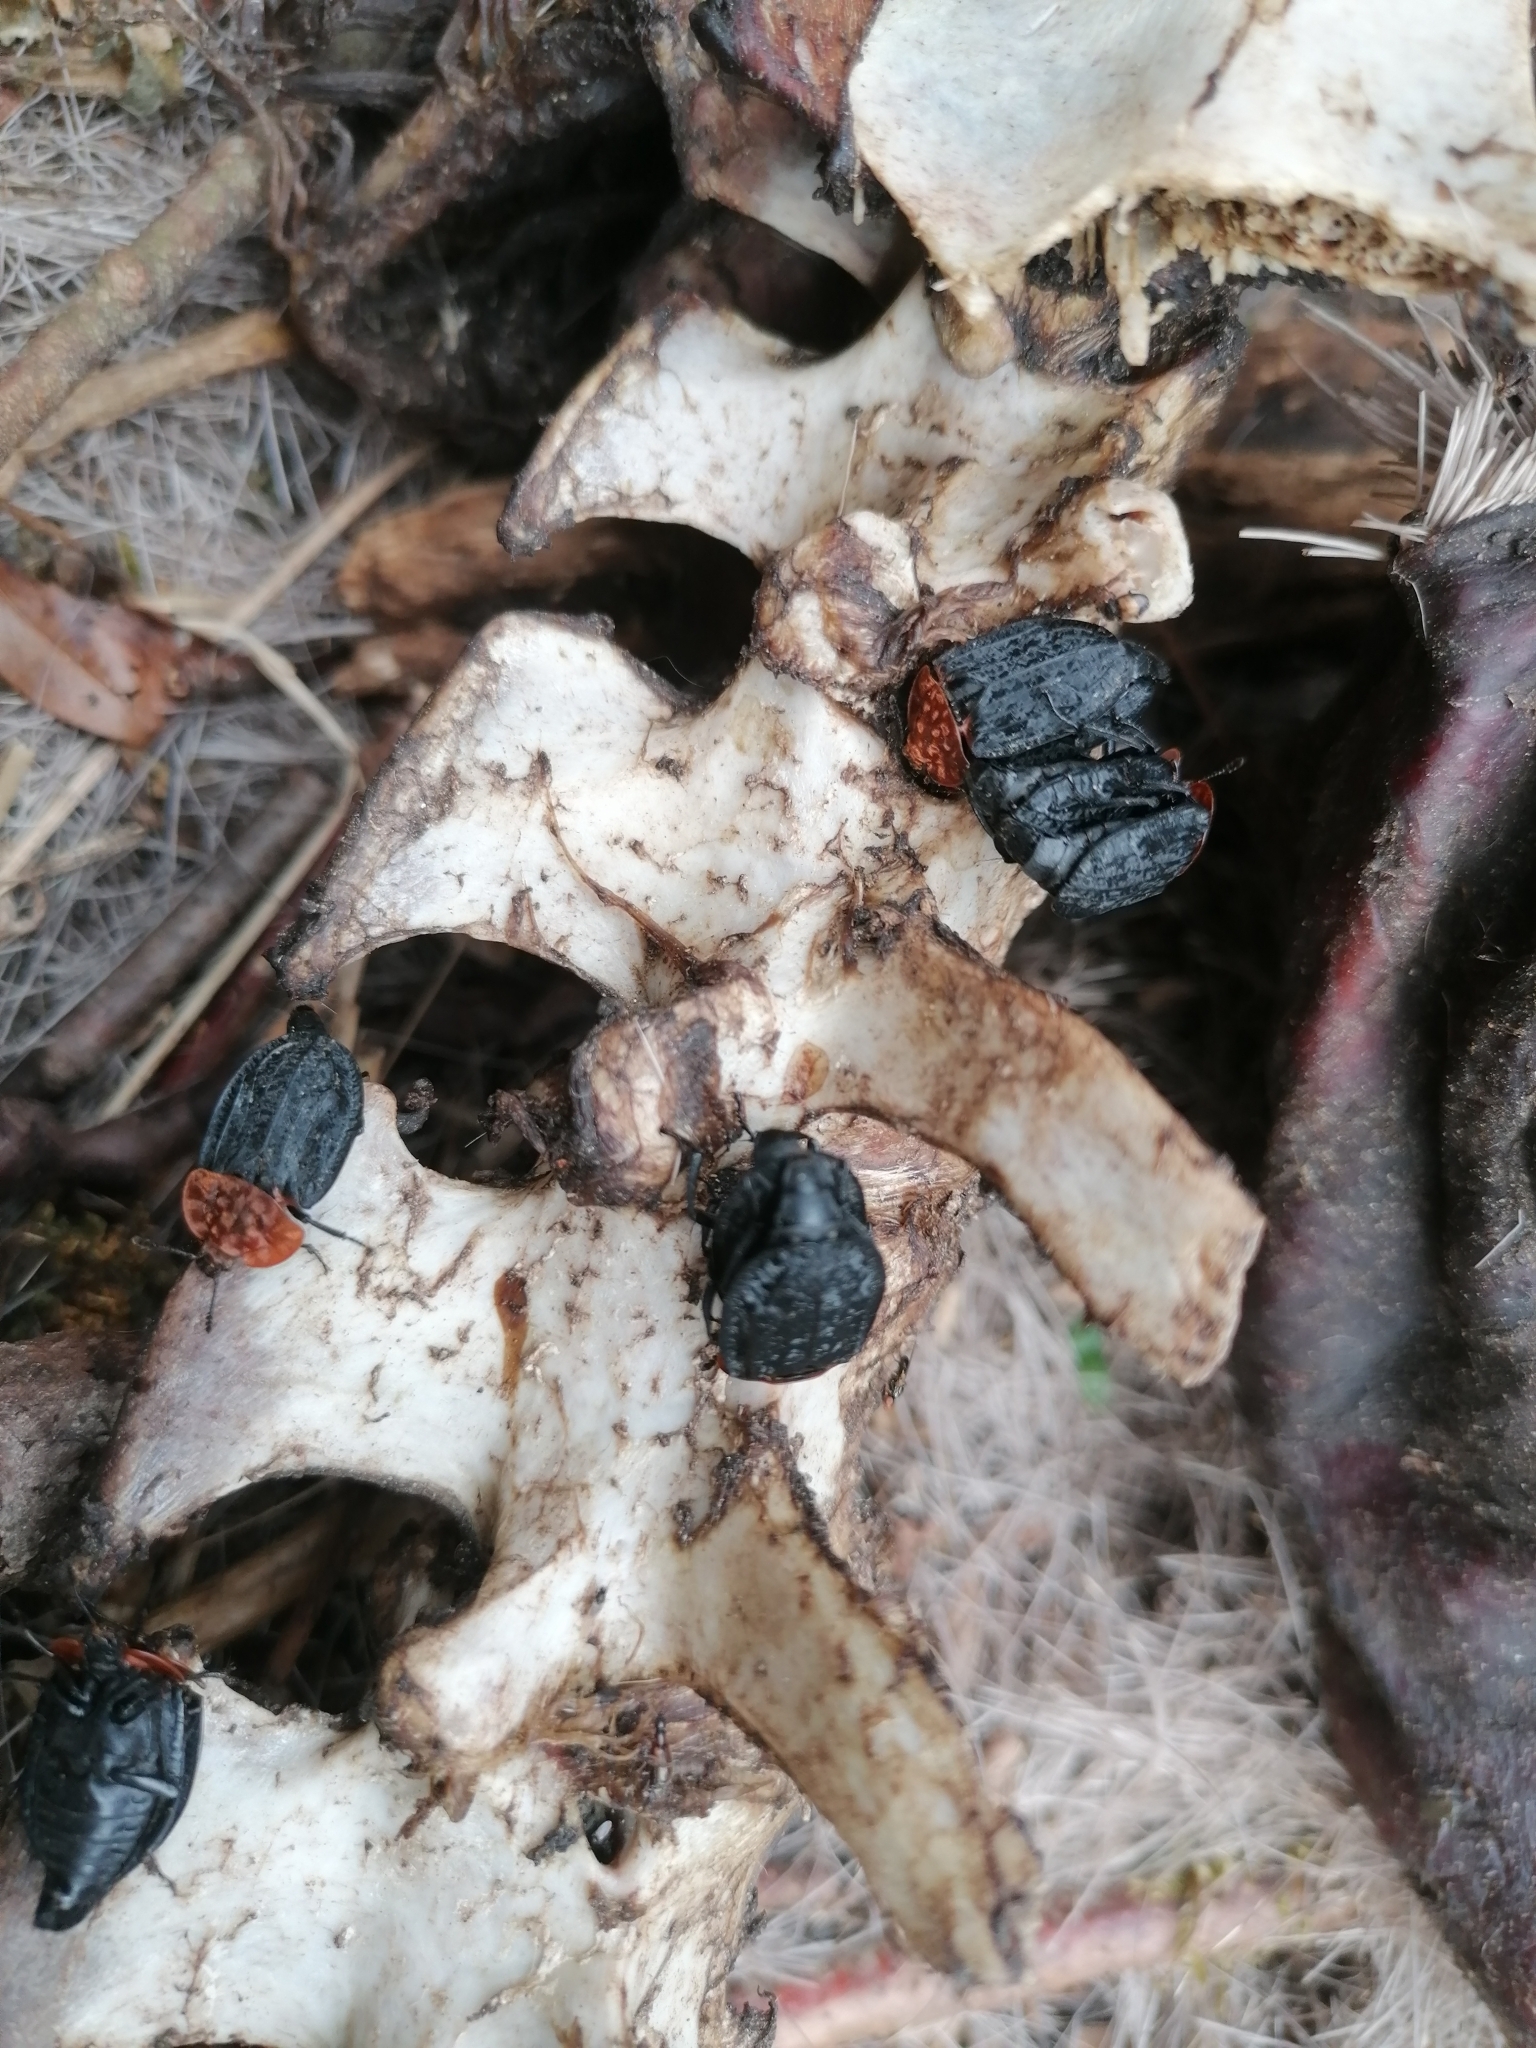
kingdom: Animalia
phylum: Arthropoda
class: Insecta
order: Coleoptera
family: Staphylinidae
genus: Oiceoptoma
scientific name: Oiceoptoma thoracicum
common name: Red-breasted carrion beetle
